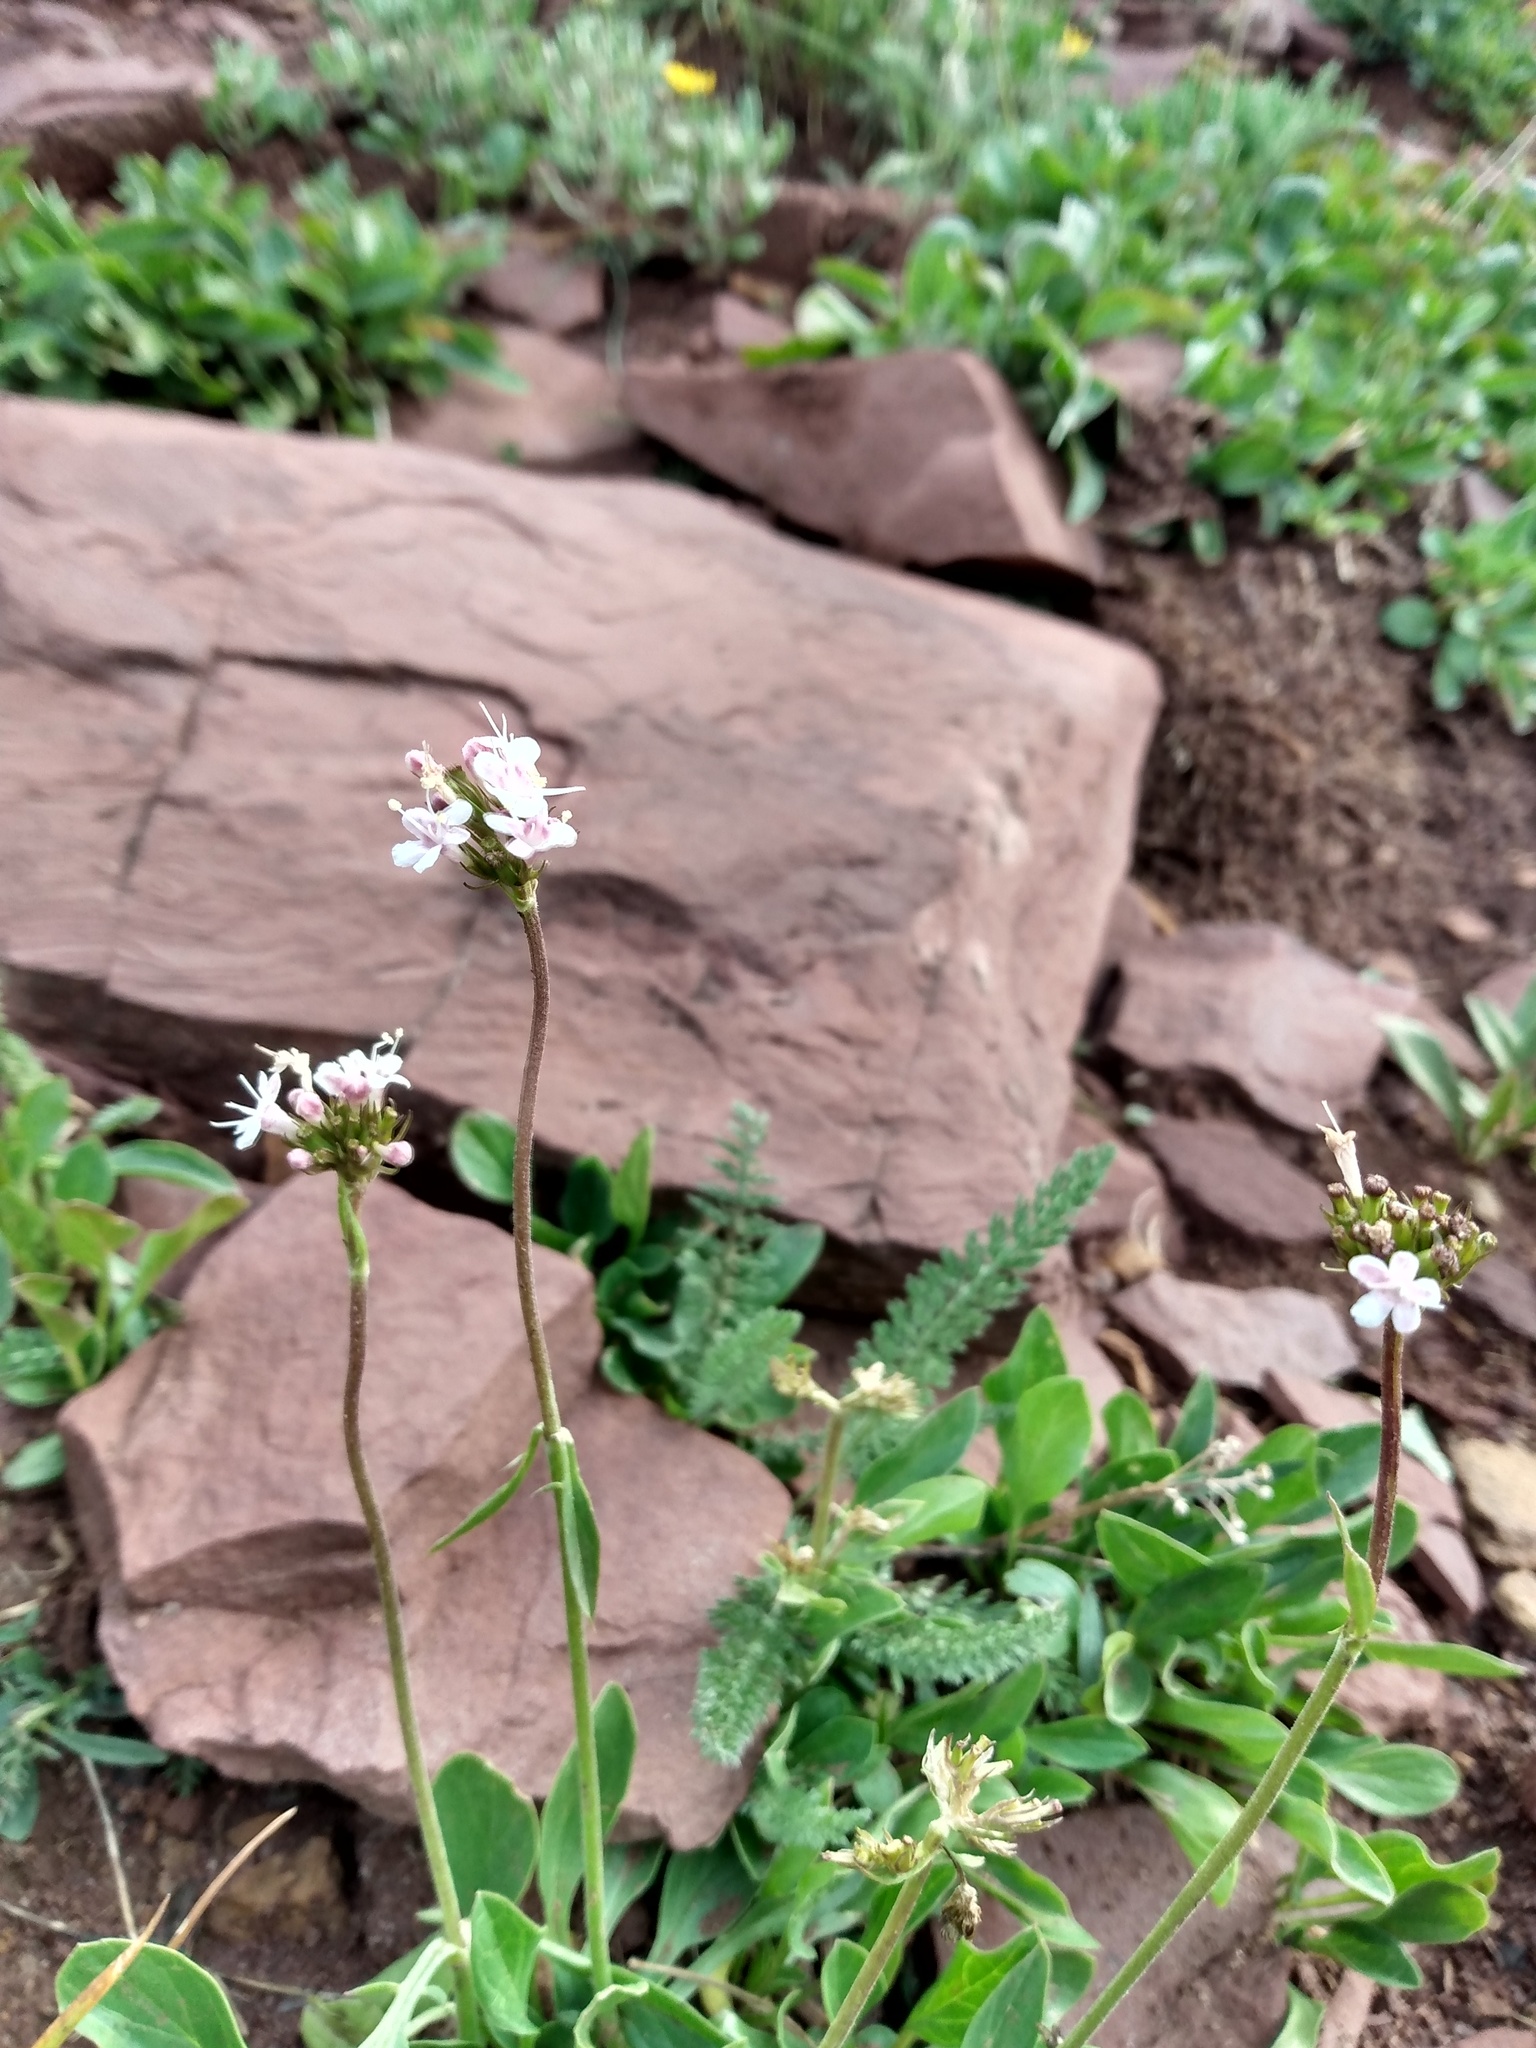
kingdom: Plantae
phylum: Tracheophyta
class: Magnoliopsida
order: Dipsacales
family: Caprifoliaceae
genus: Valeriana
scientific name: Valeriana acutiloba
